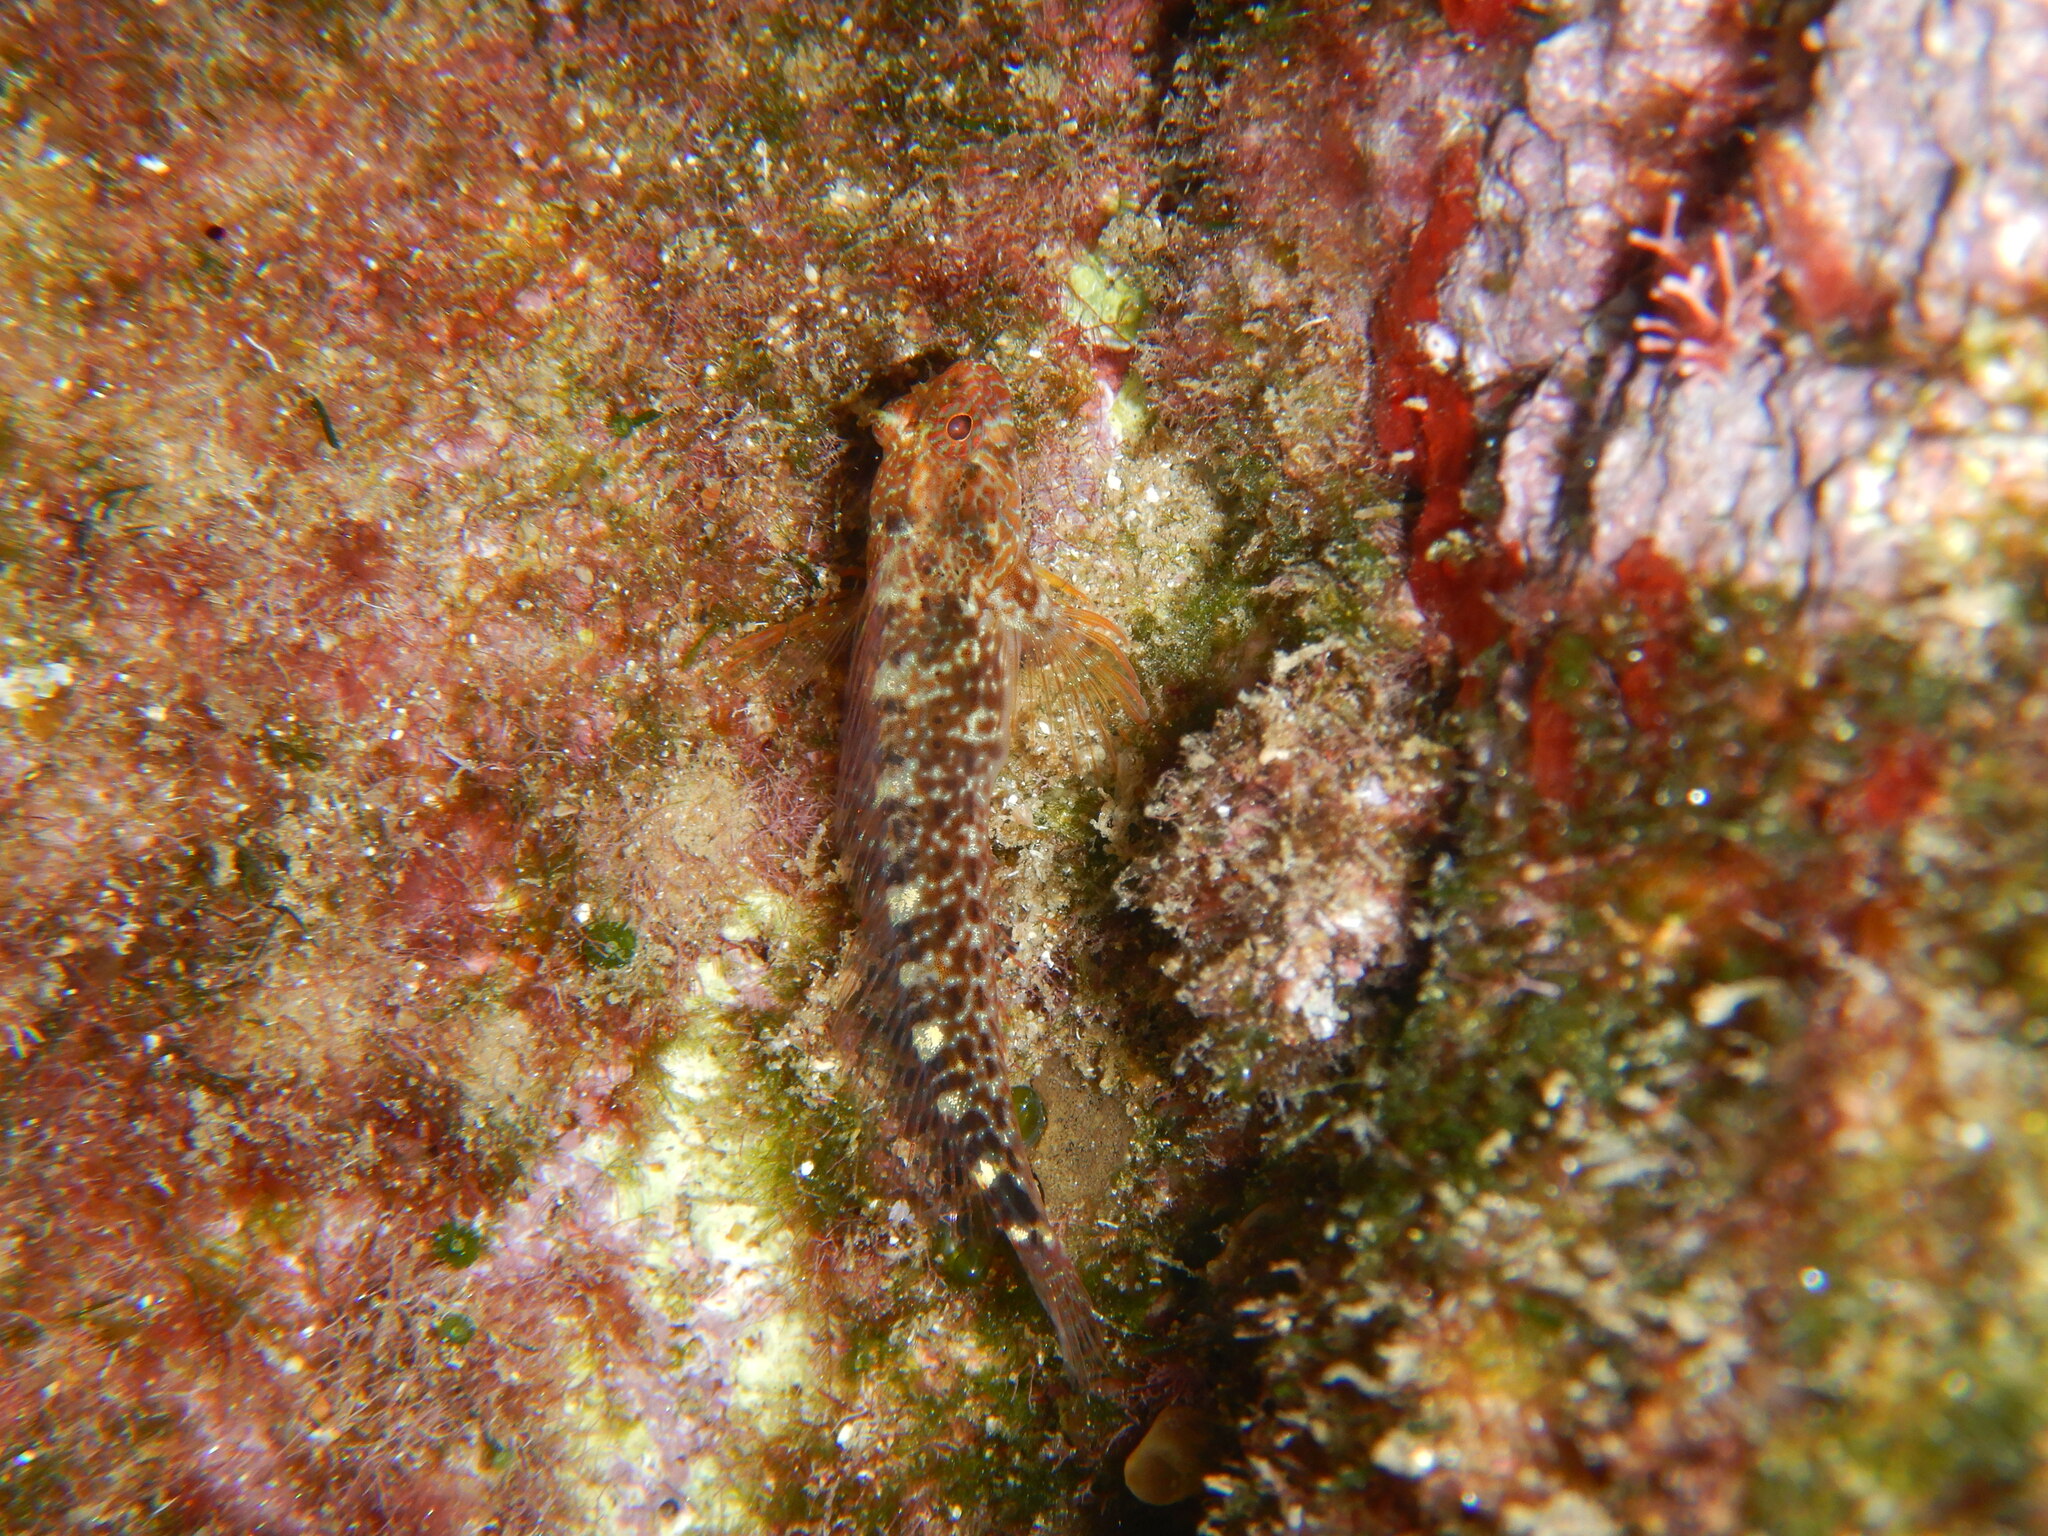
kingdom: Animalia
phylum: Chordata
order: Perciformes
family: Blenniidae
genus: Parablennius
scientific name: Parablennius zvonimiri
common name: Red blenny
